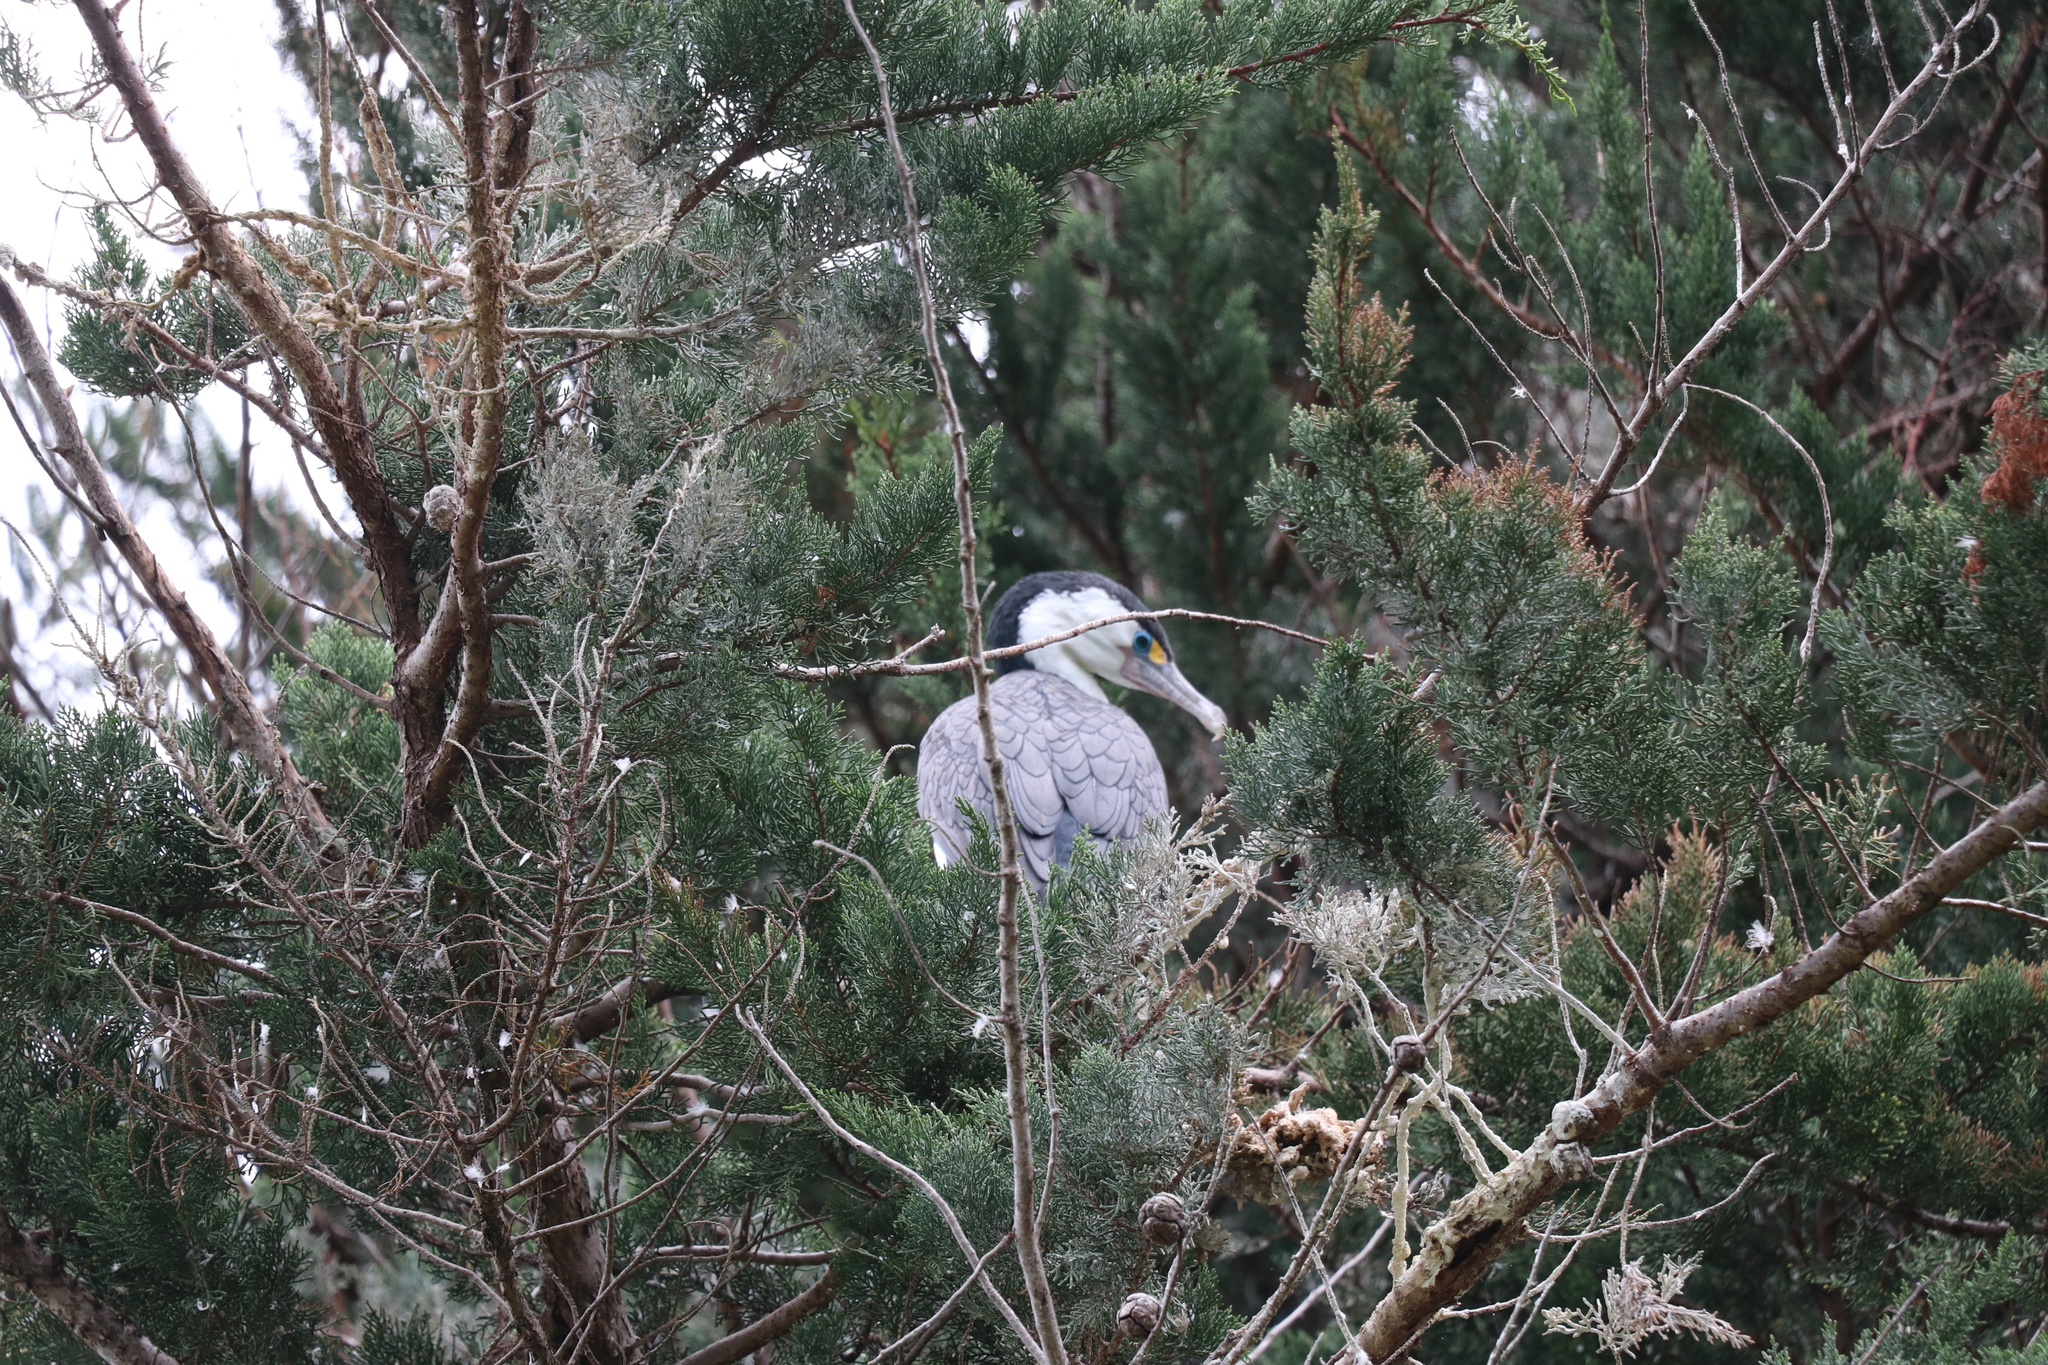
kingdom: Animalia
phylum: Chordata
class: Aves
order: Suliformes
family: Phalacrocoracidae
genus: Phalacrocorax
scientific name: Phalacrocorax varius
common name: Pied cormorant
